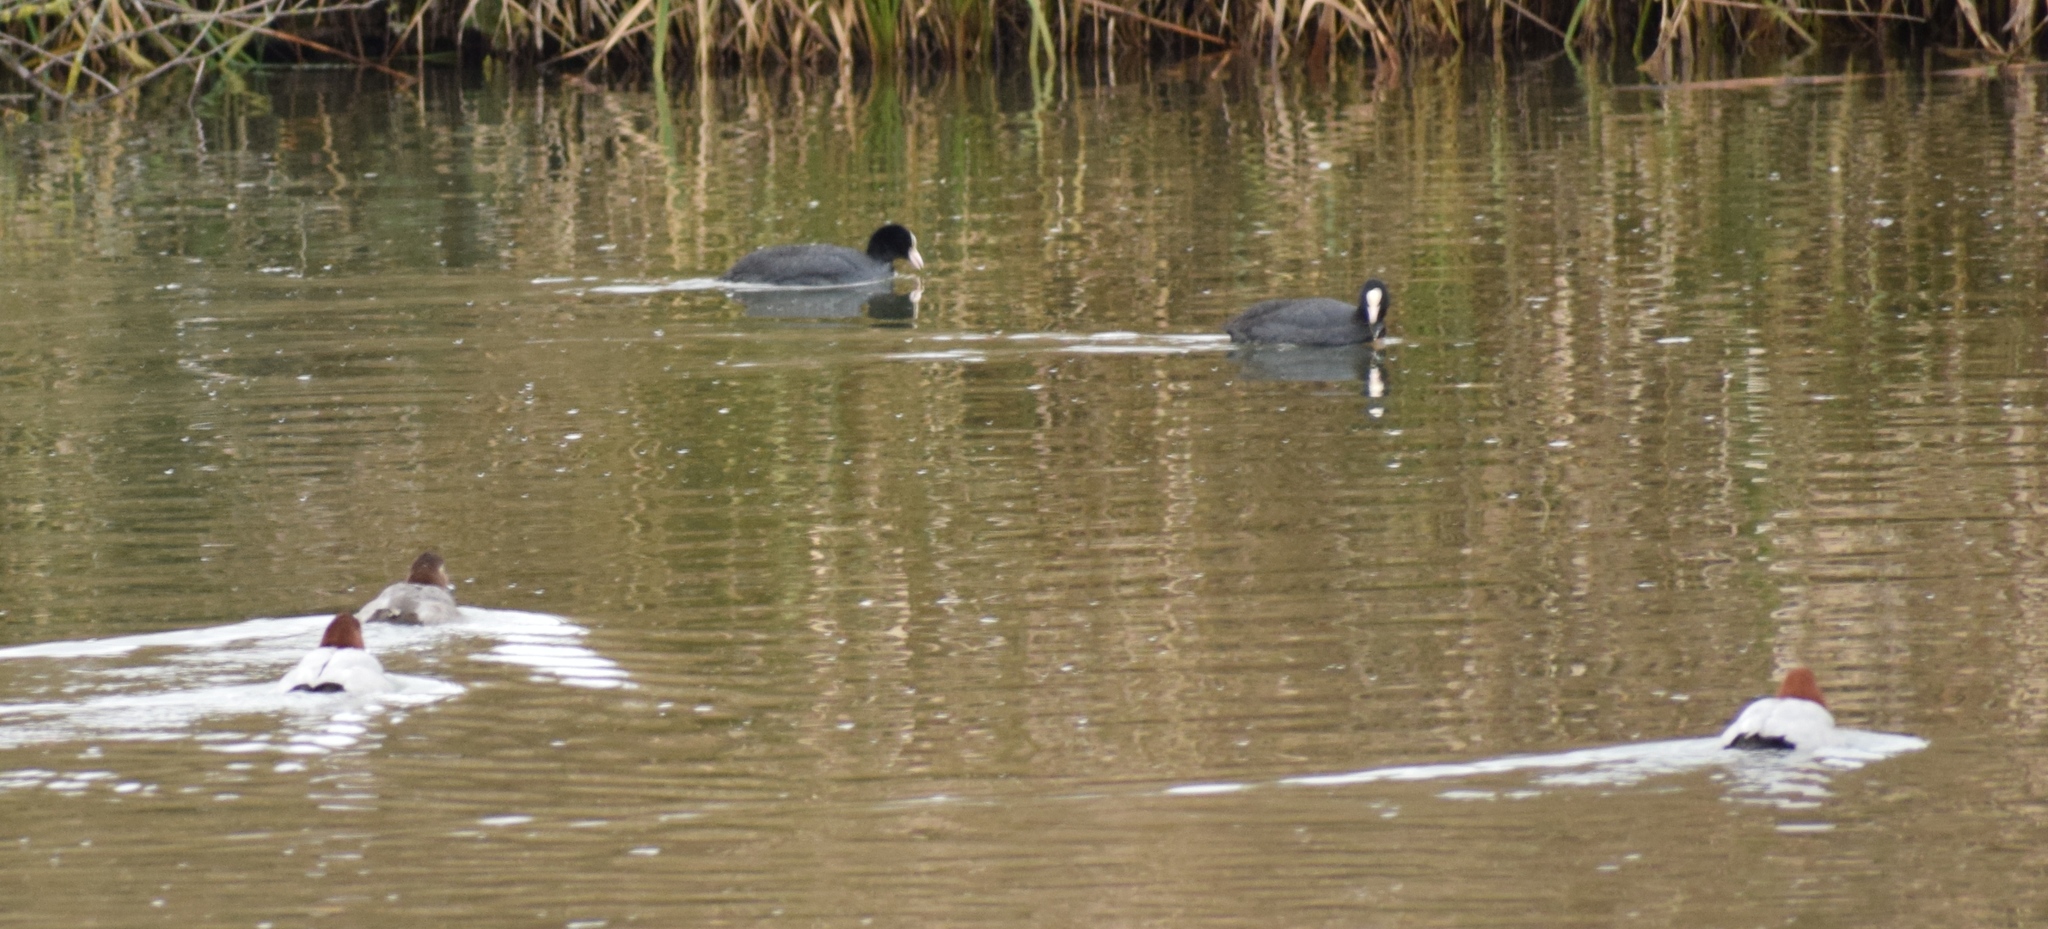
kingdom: Animalia
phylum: Chordata
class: Aves
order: Gruiformes
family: Rallidae
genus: Fulica
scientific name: Fulica atra
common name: Eurasian coot
